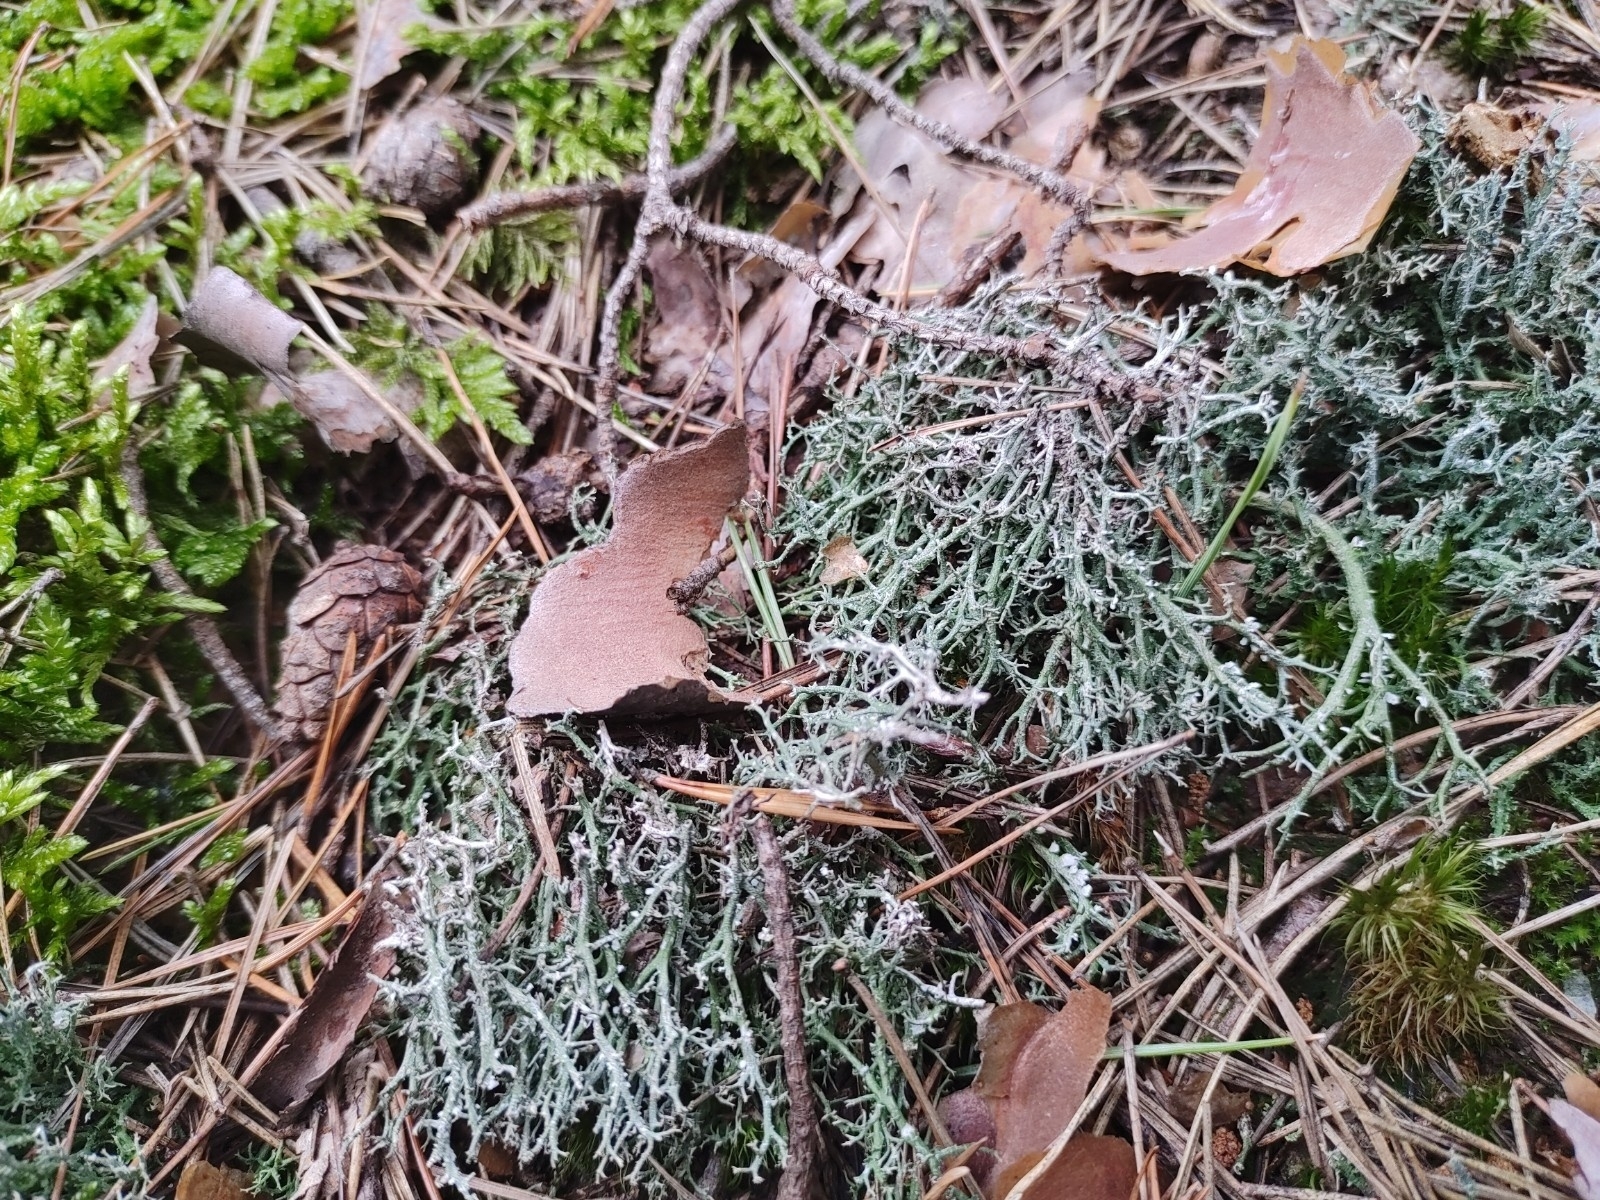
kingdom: Fungi
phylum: Ascomycota
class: Lecanoromycetes
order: Lecanorales
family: Cladoniaceae
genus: Cladonia
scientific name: Cladonia furcata
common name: Many-forked cladonia
